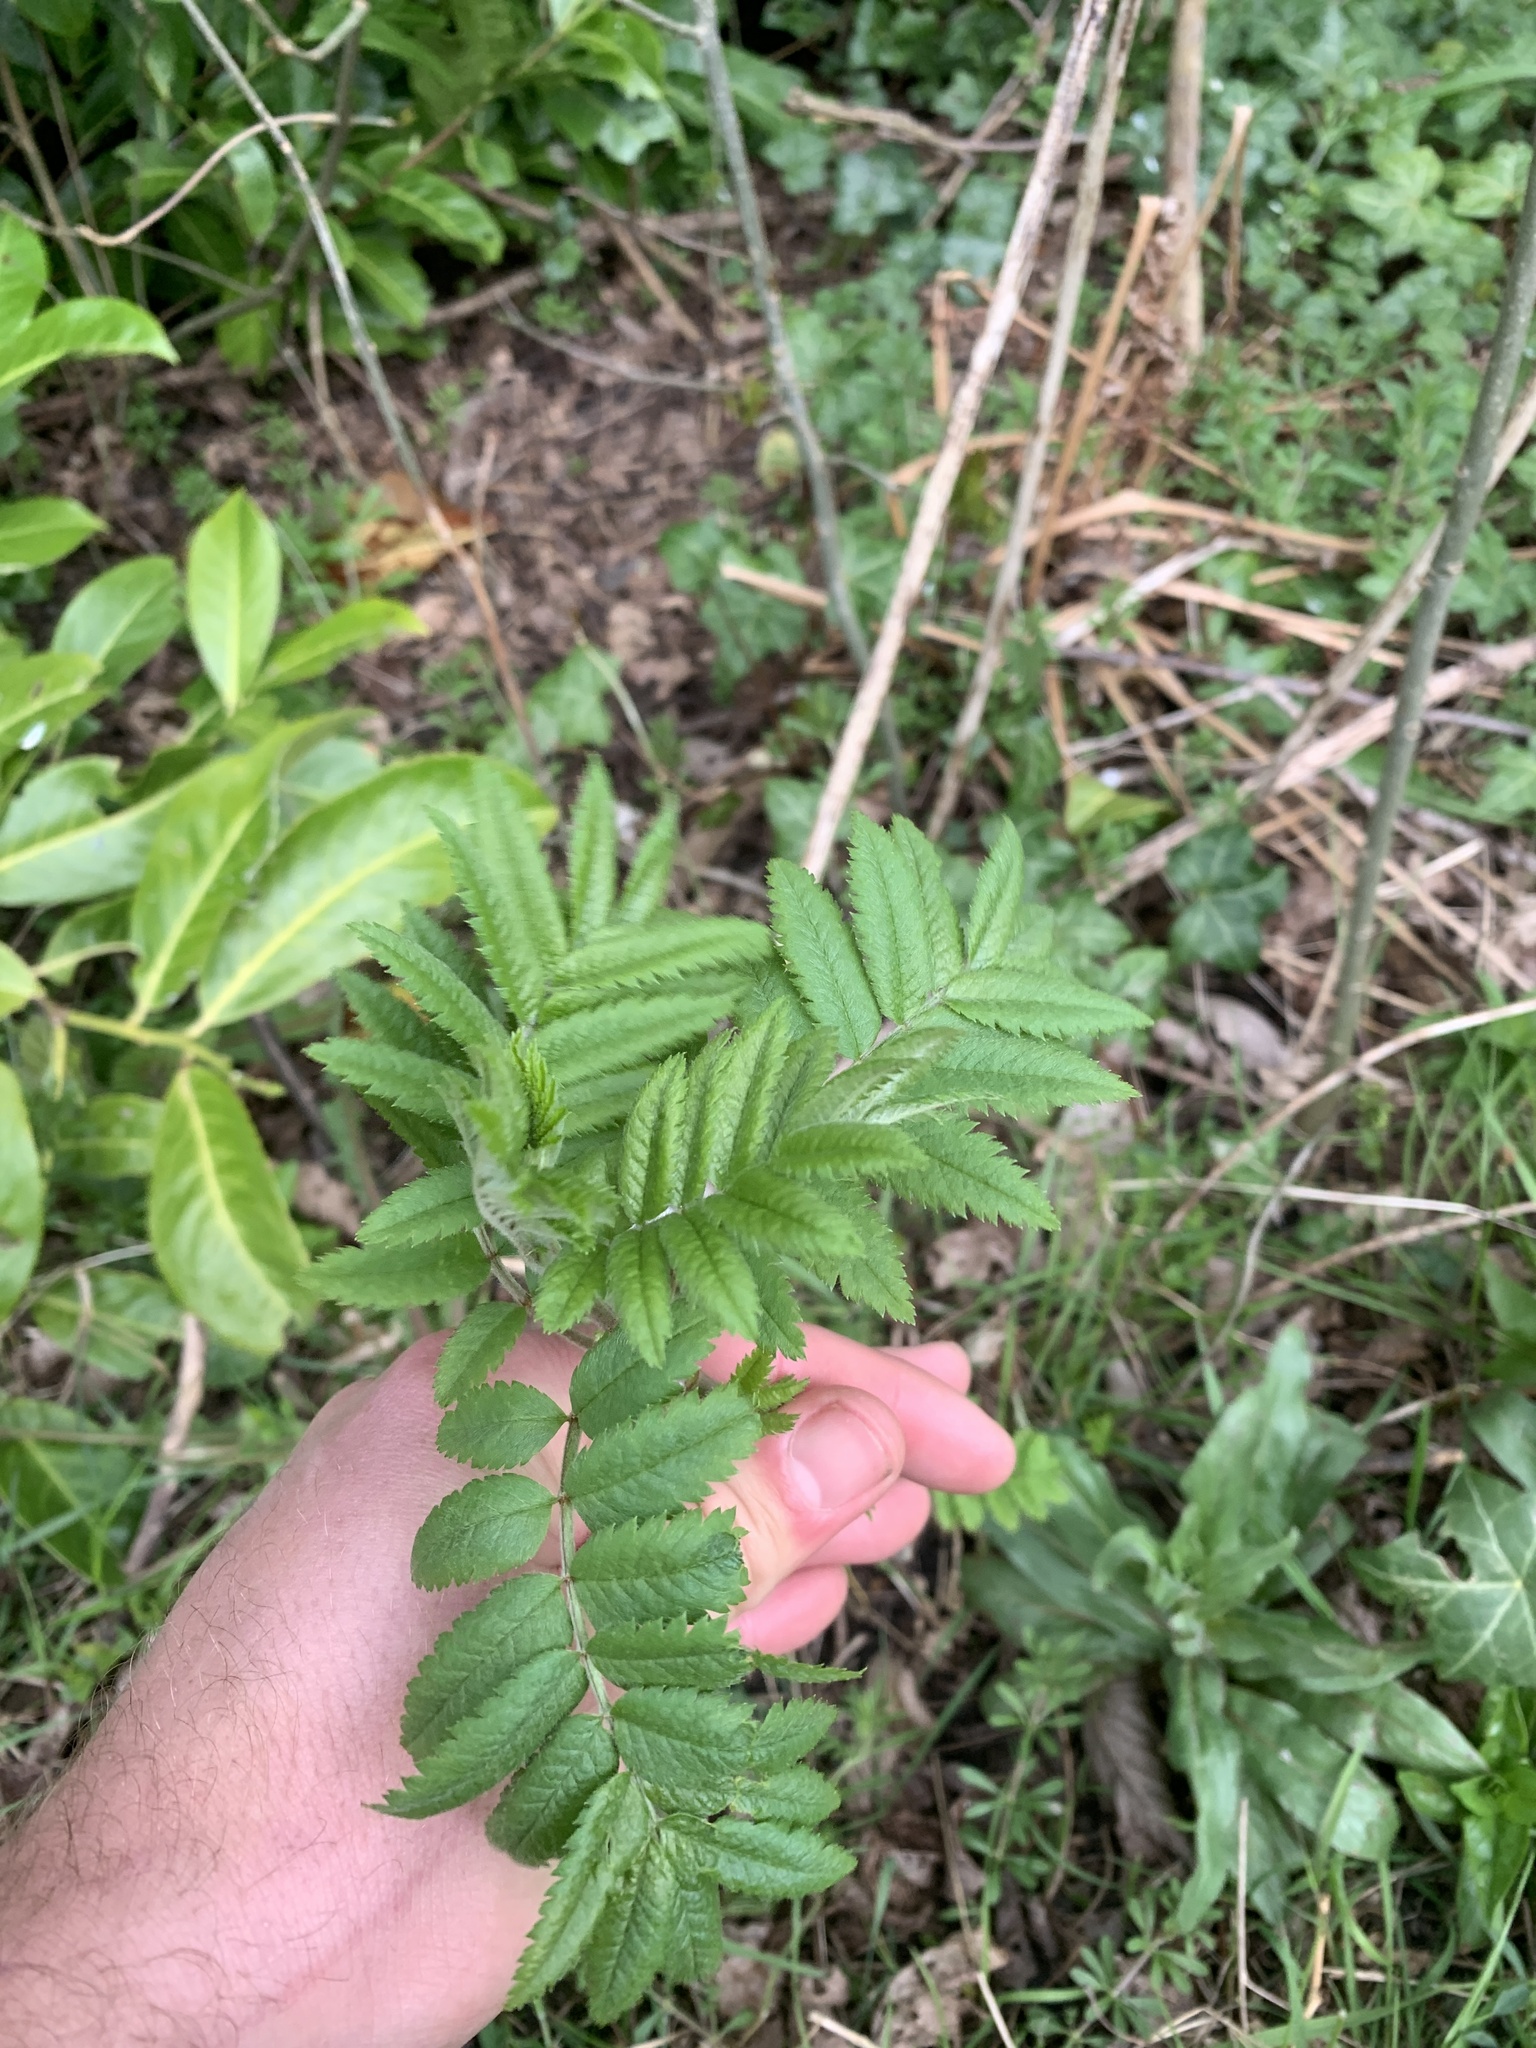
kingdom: Plantae
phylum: Tracheophyta
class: Magnoliopsida
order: Rosales
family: Rosaceae
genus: Sorbus
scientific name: Sorbus aucuparia
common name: Rowan
